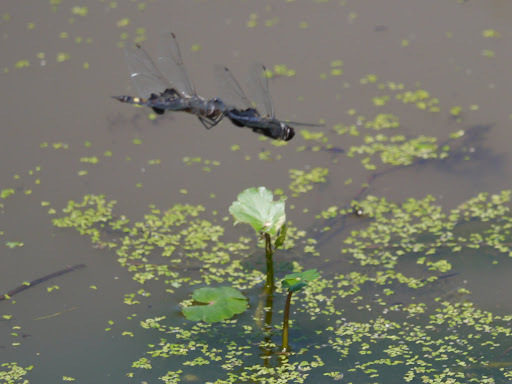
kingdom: Animalia
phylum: Arthropoda
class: Insecta
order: Odonata
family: Libellulidae
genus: Tramea
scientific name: Tramea lacerata
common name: Black saddlebags
